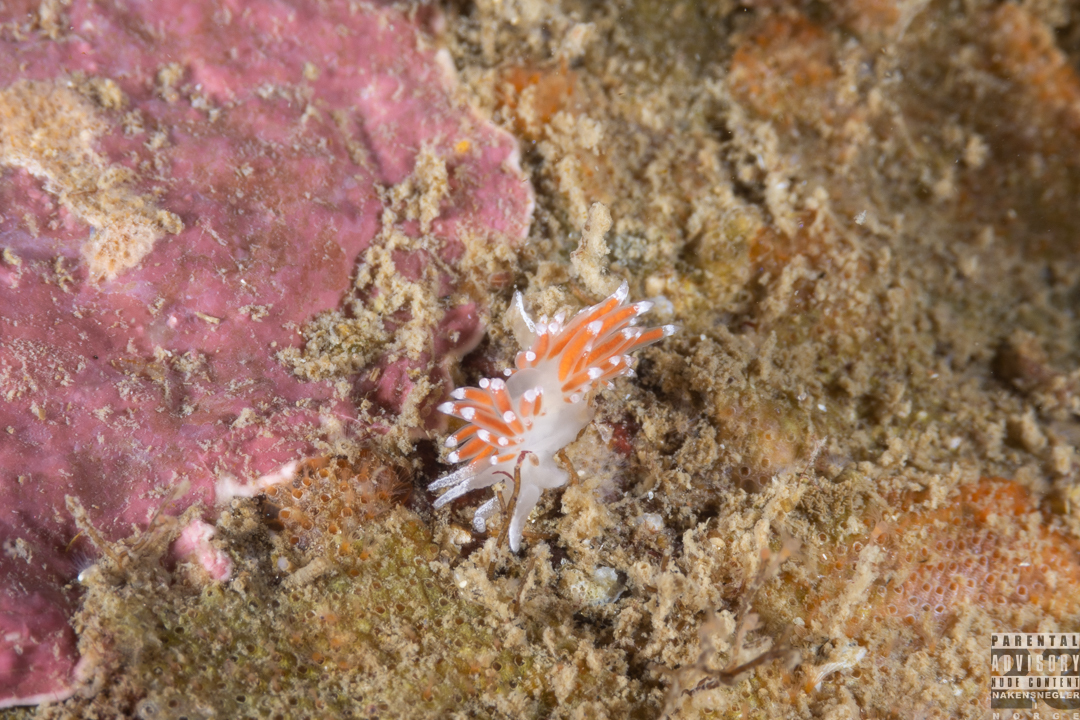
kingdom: Animalia
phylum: Mollusca
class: Gastropoda
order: Nudibranchia
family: Coryphellidae
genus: Coryphella
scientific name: Coryphella gracilis
